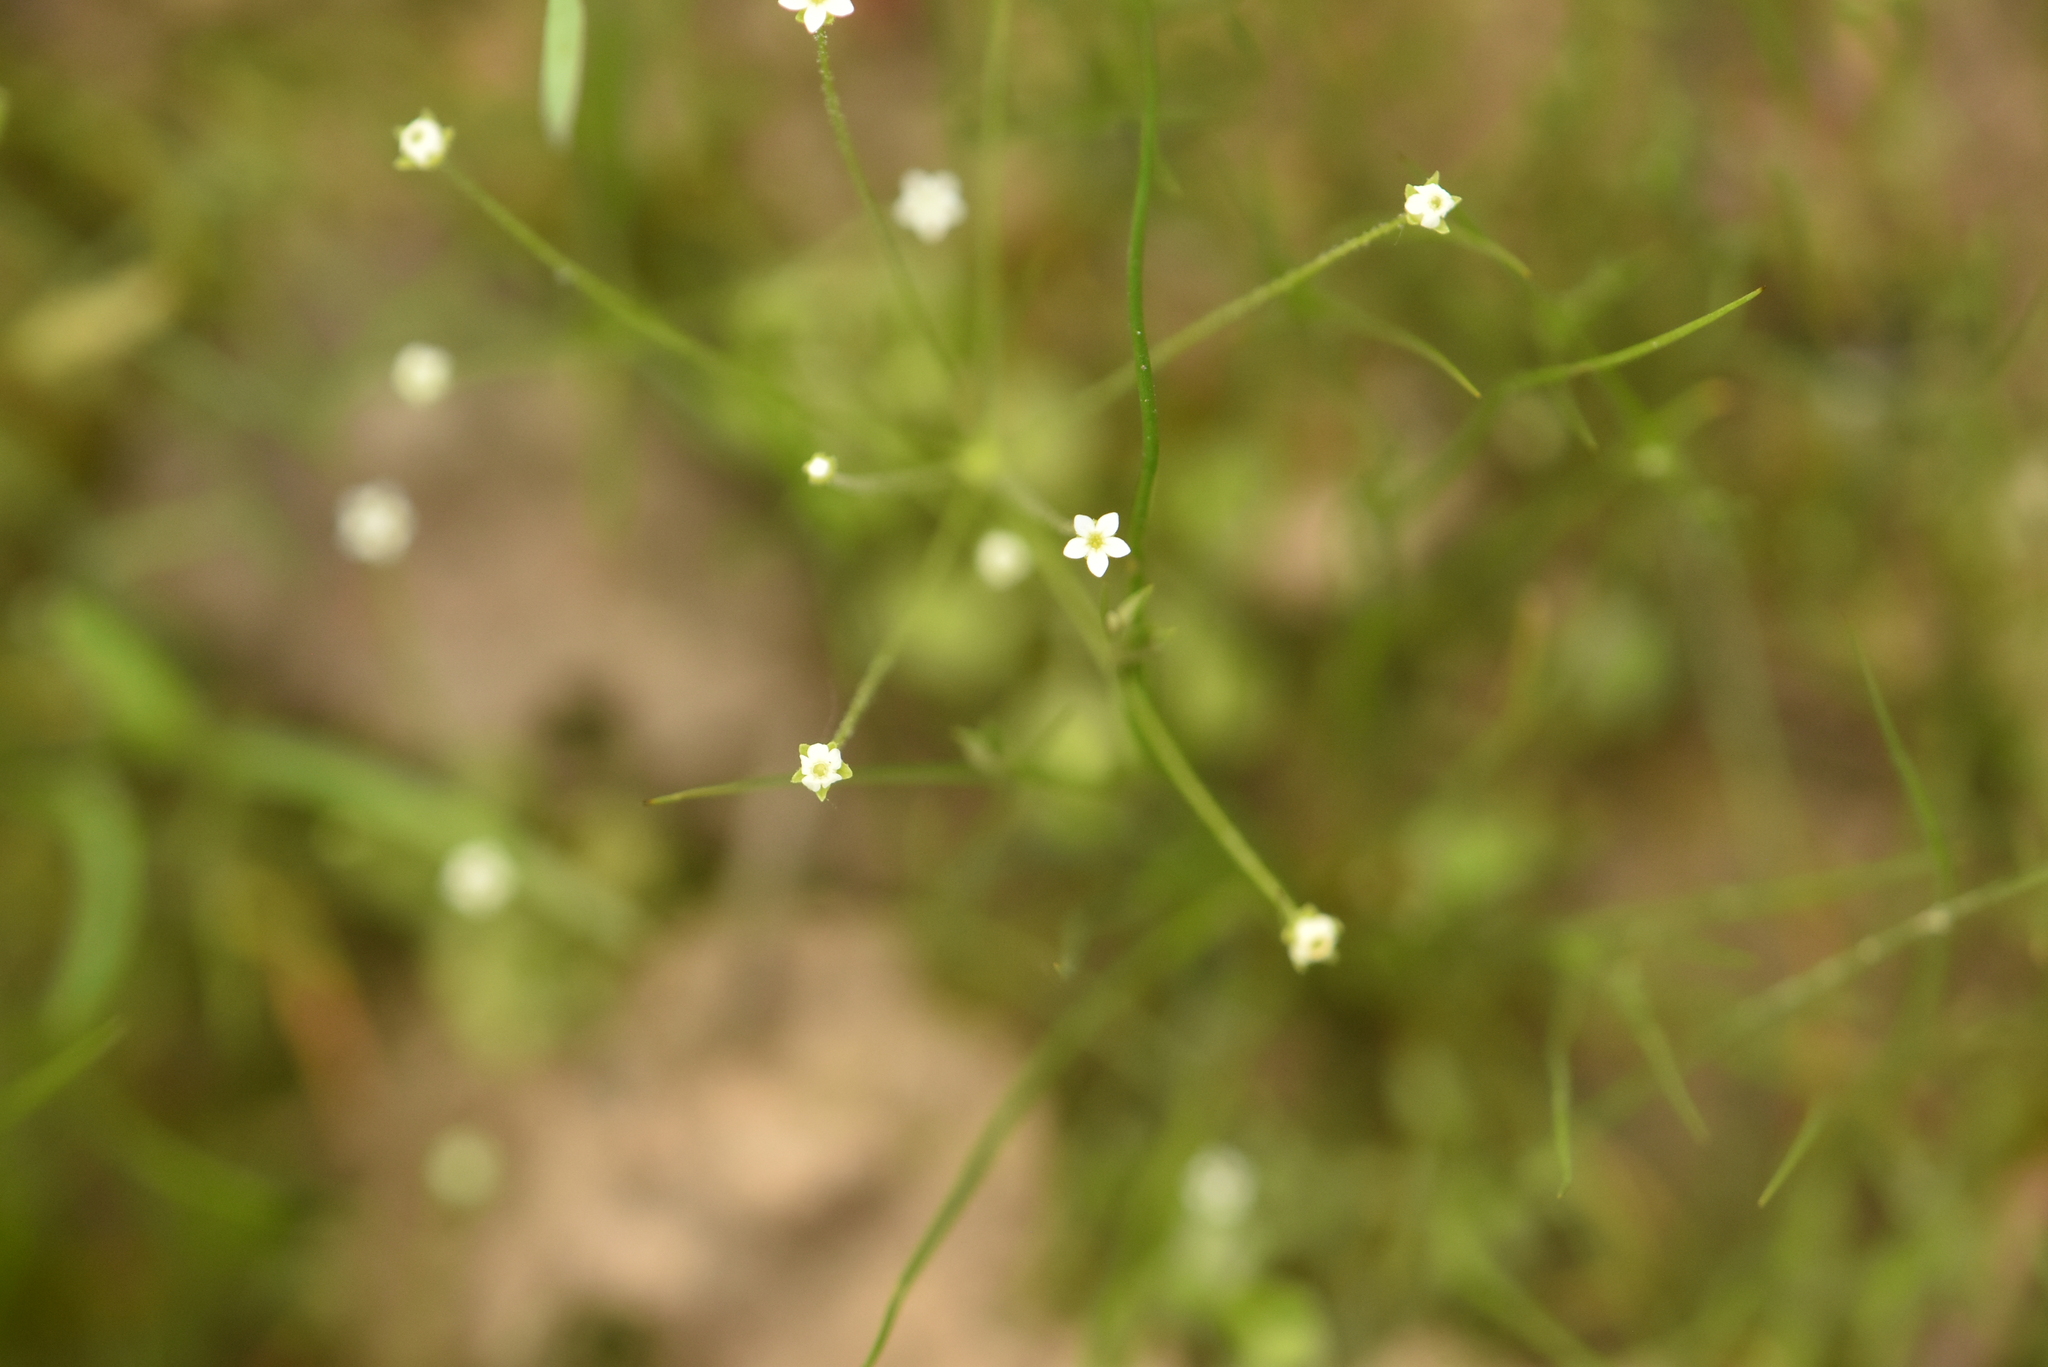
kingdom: Plantae
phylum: Tracheophyta
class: Magnoliopsida
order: Ericales
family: Primulaceae
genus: Androsace
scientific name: Androsace filiformis
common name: Filiform rock jasmine
